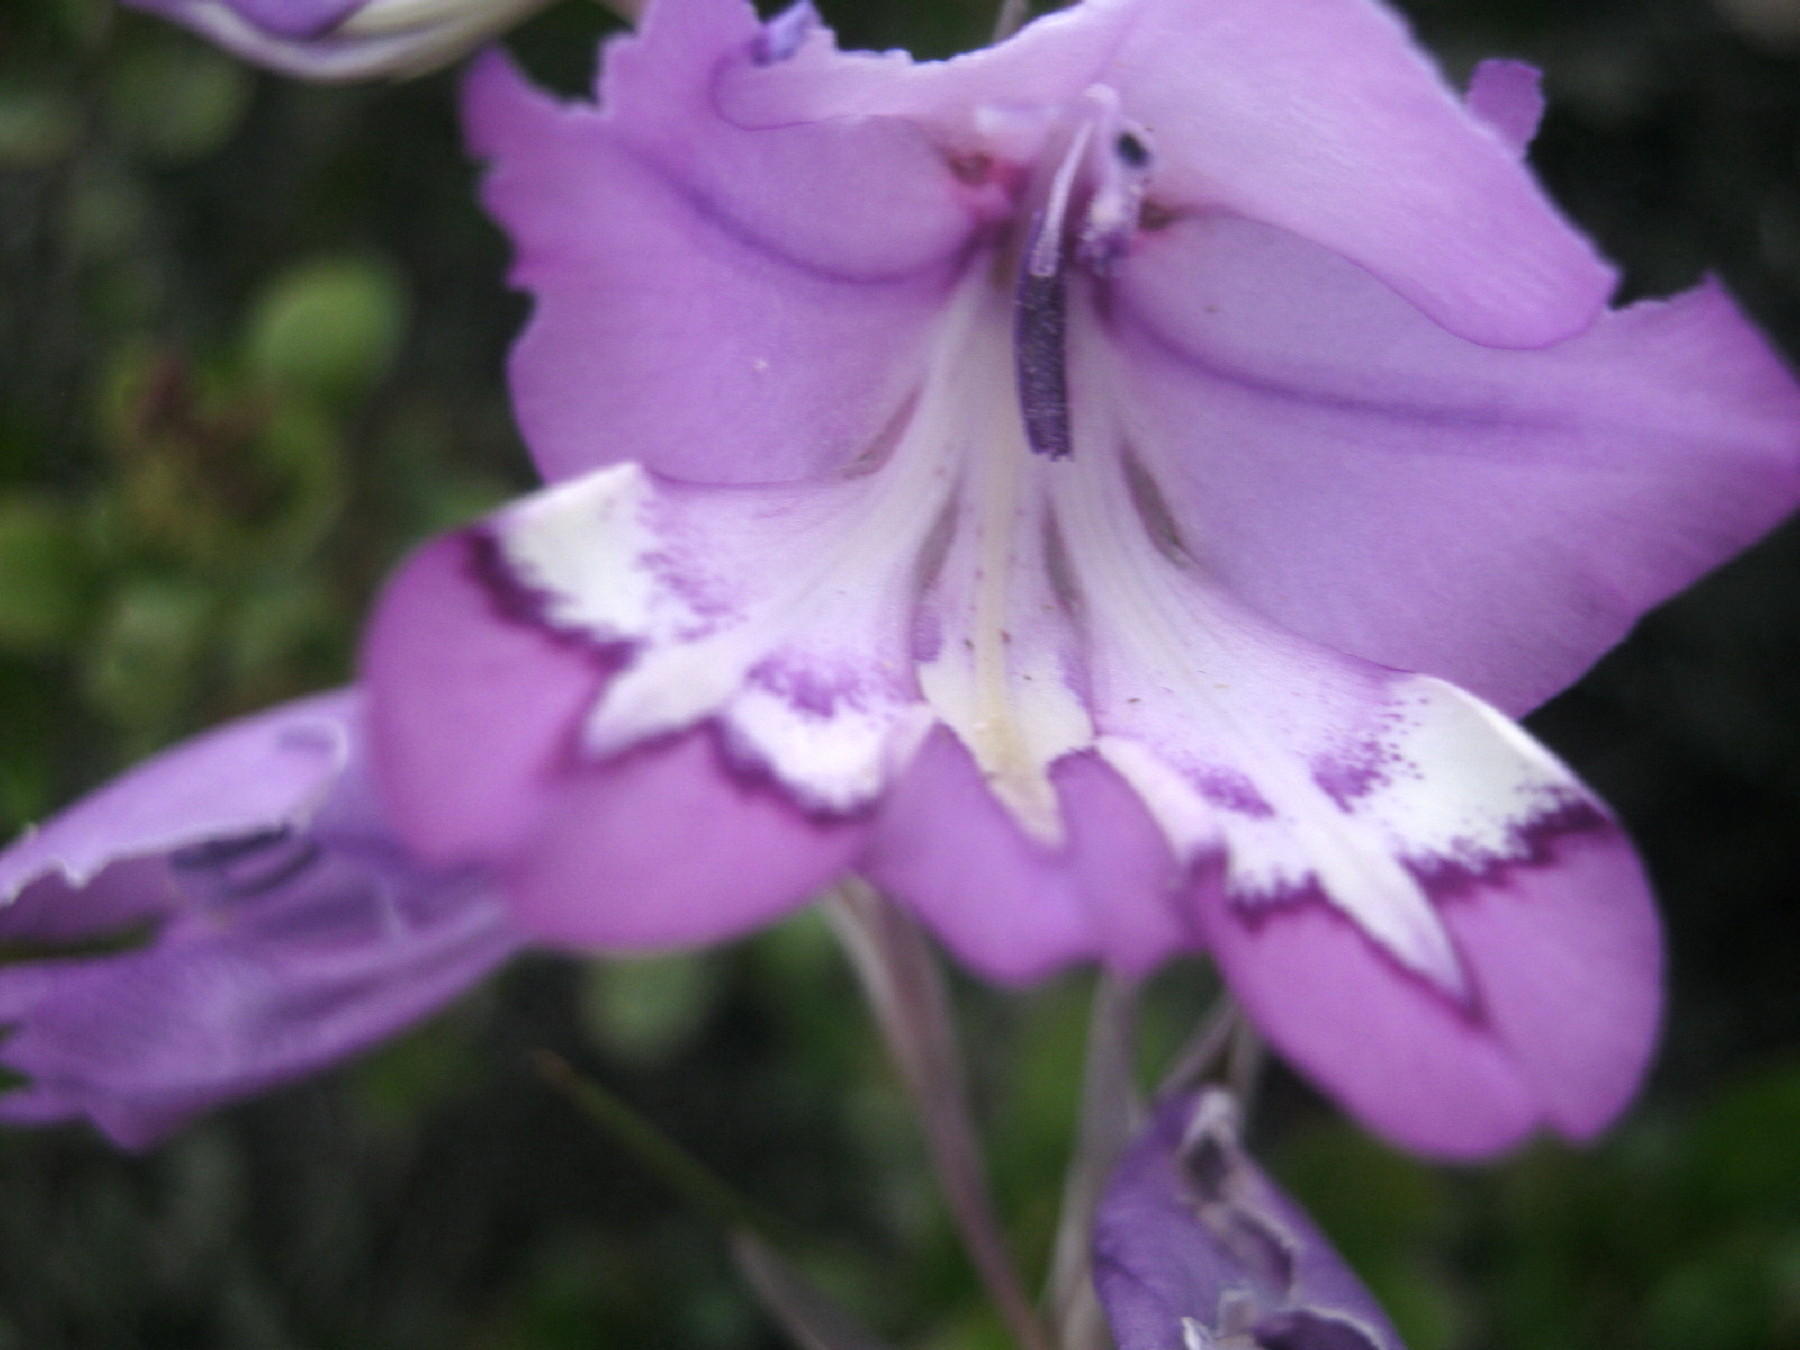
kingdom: Plantae
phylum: Tracheophyta
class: Liliopsida
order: Asparagales
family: Iridaceae
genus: Gladiolus
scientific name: Gladiolus rogersii
